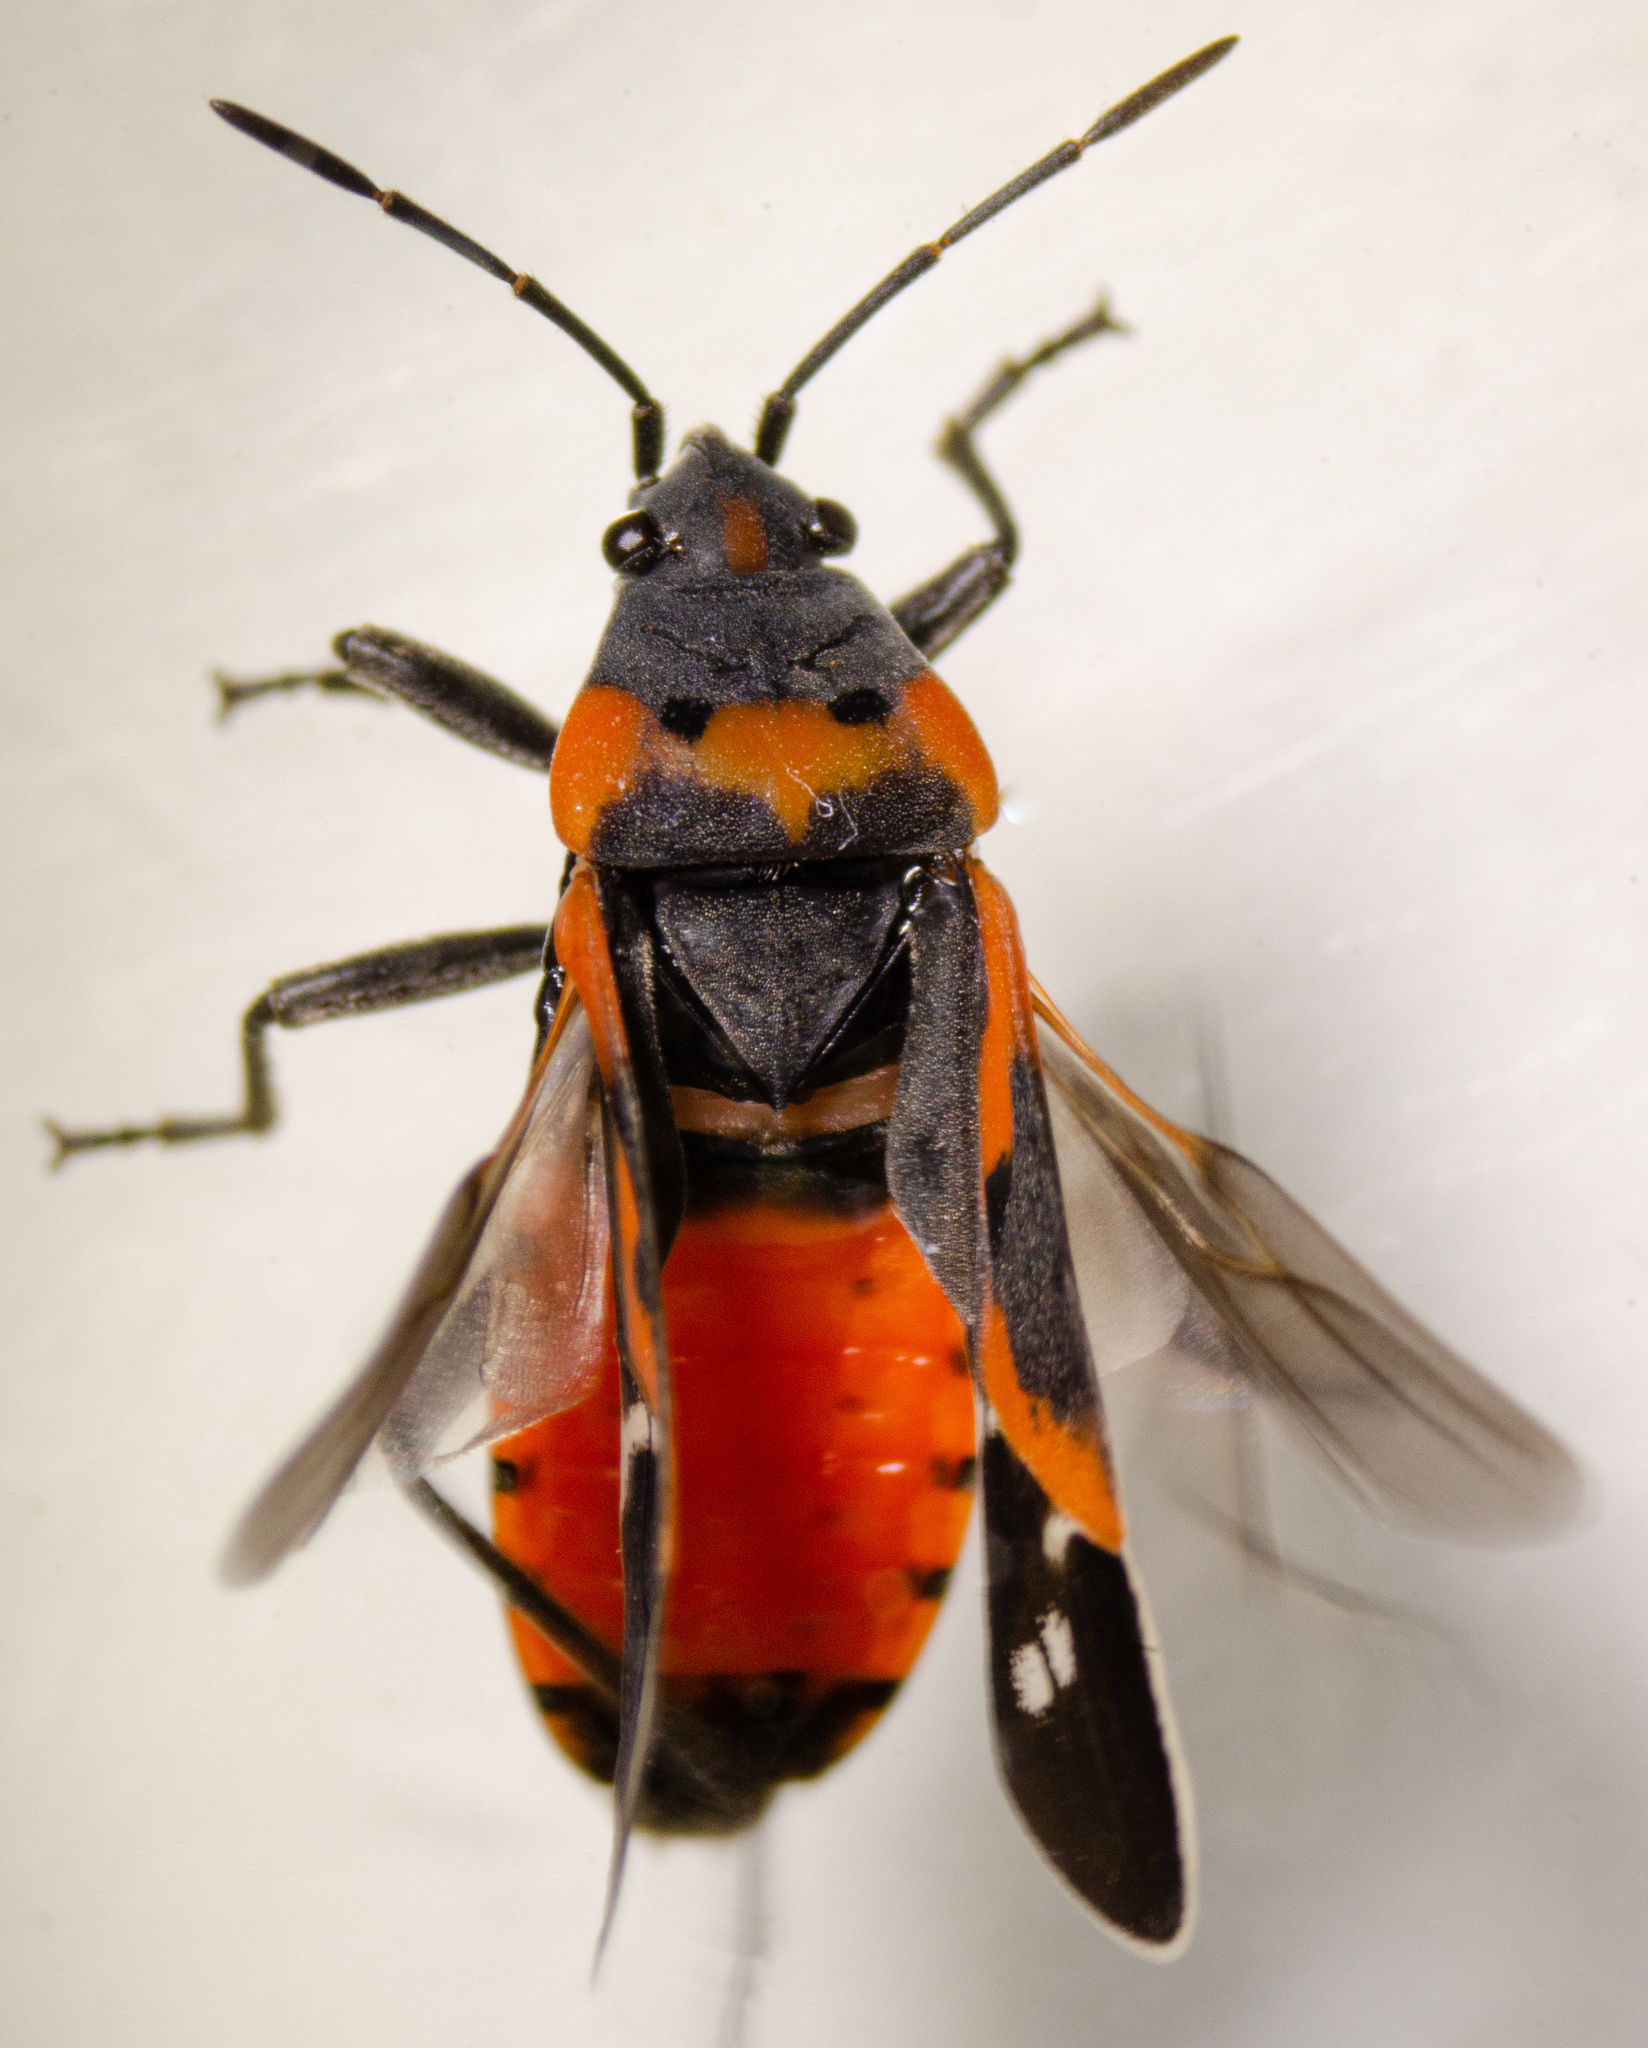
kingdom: Animalia
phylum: Arthropoda
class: Insecta
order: Hemiptera
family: Lygaeidae
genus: Lygaeus
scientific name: Lygaeus kalmii
